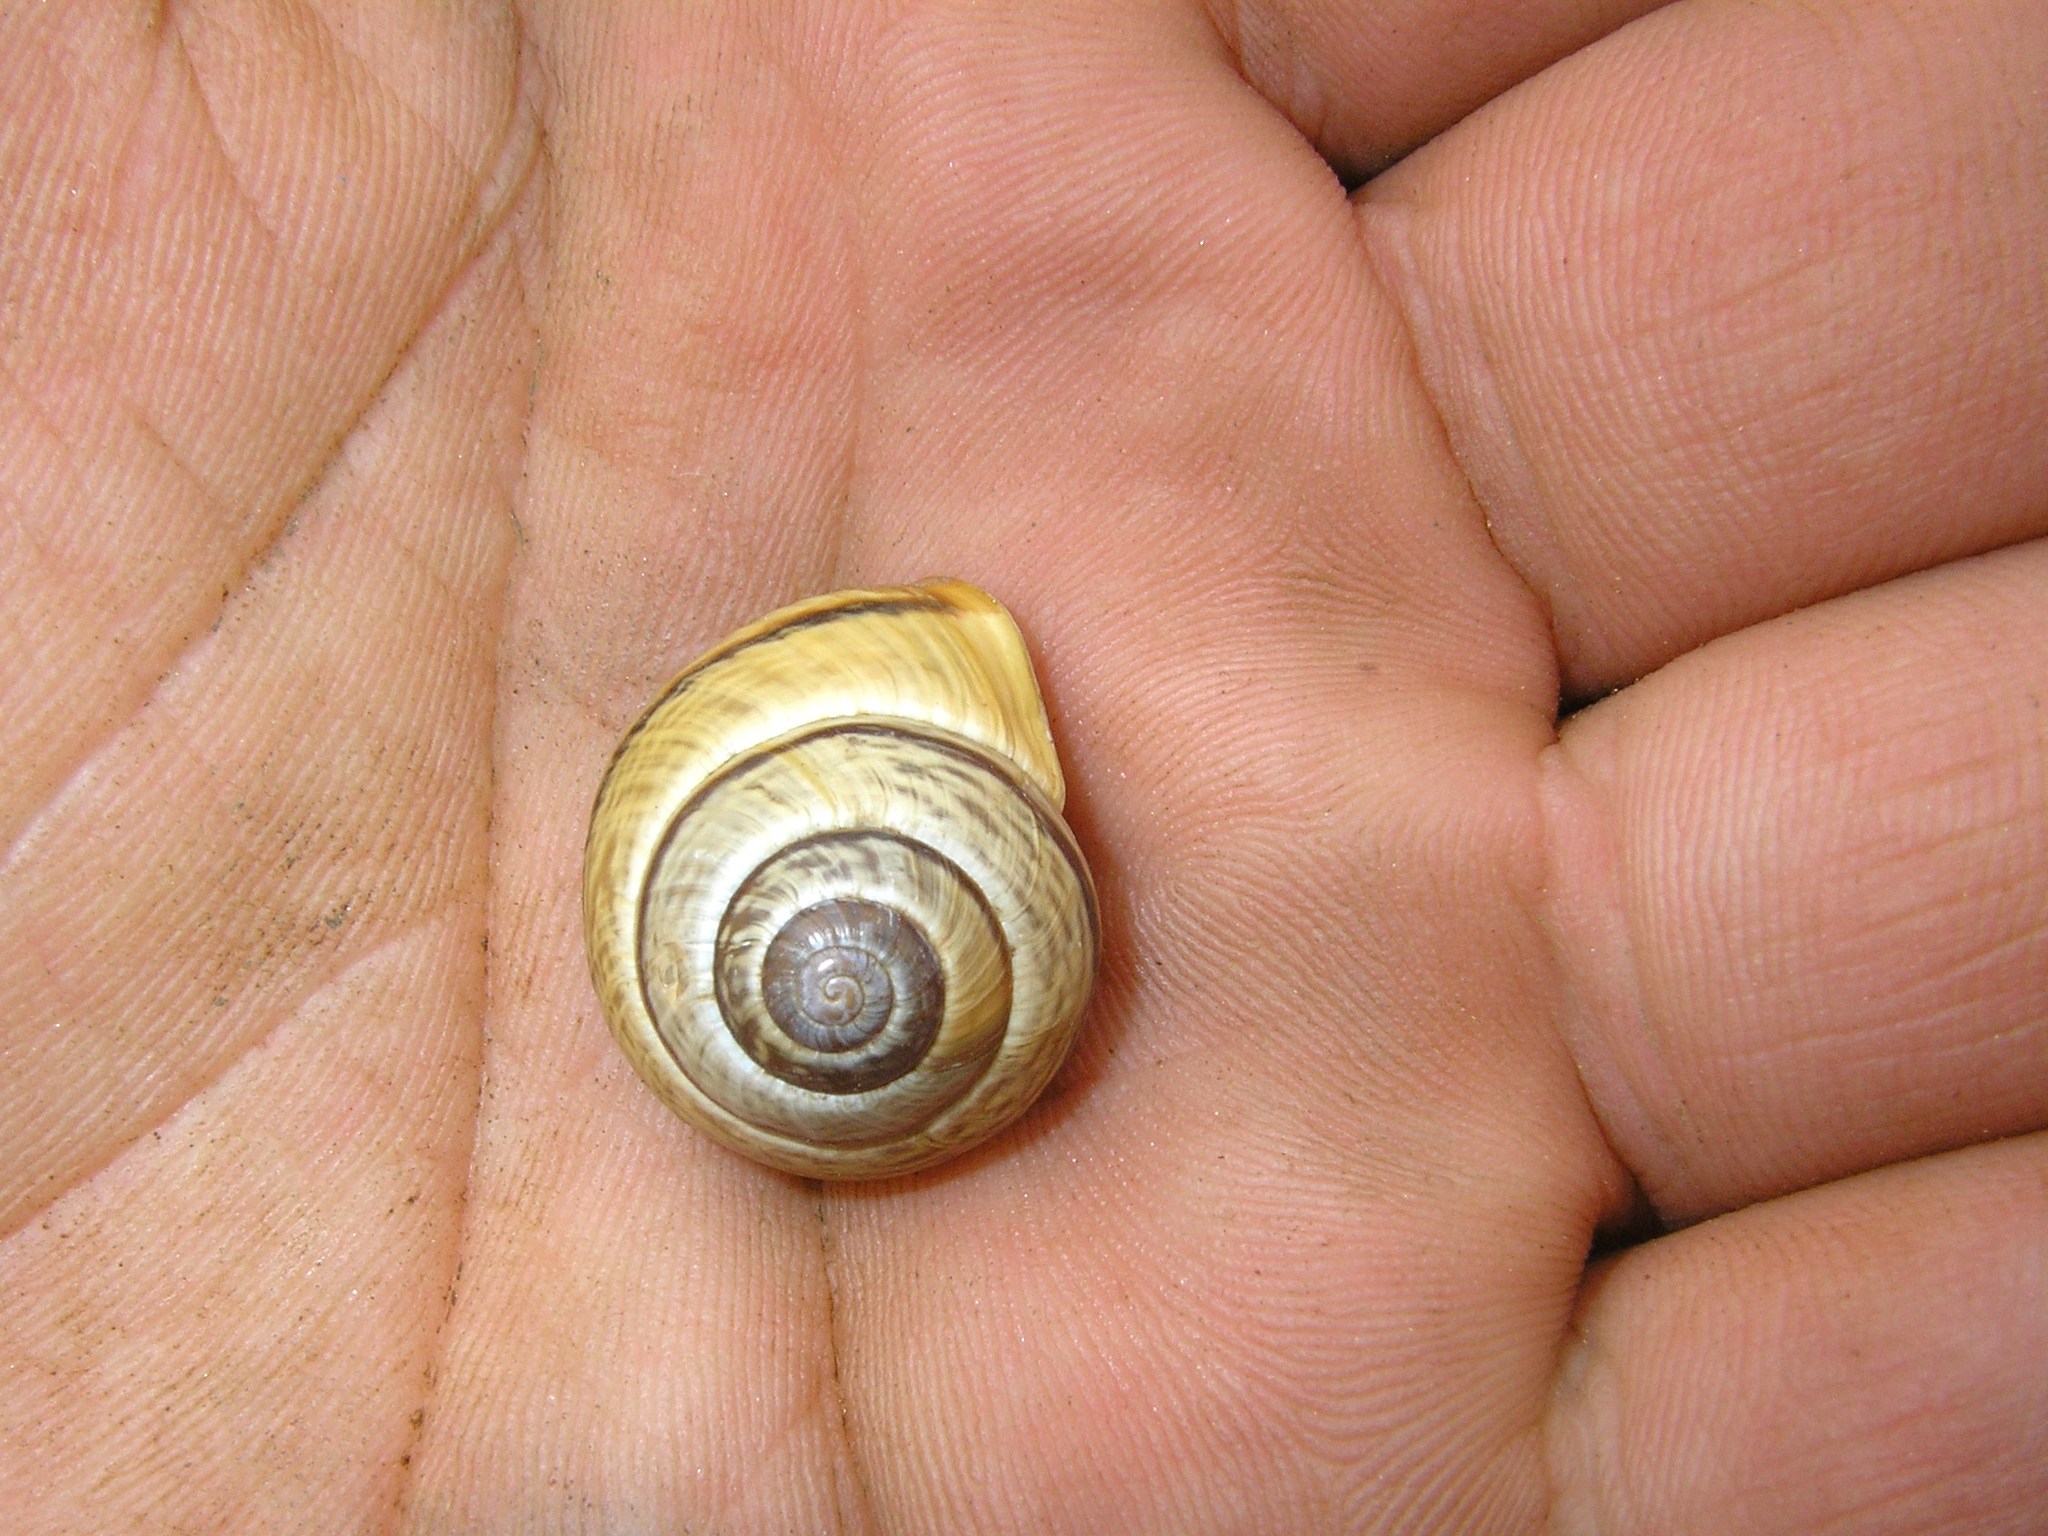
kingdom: Animalia
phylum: Mollusca
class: Gastropoda
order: Stylommatophora
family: Helicidae
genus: Arianta
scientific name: Arianta arbustorum
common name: Copse snail
